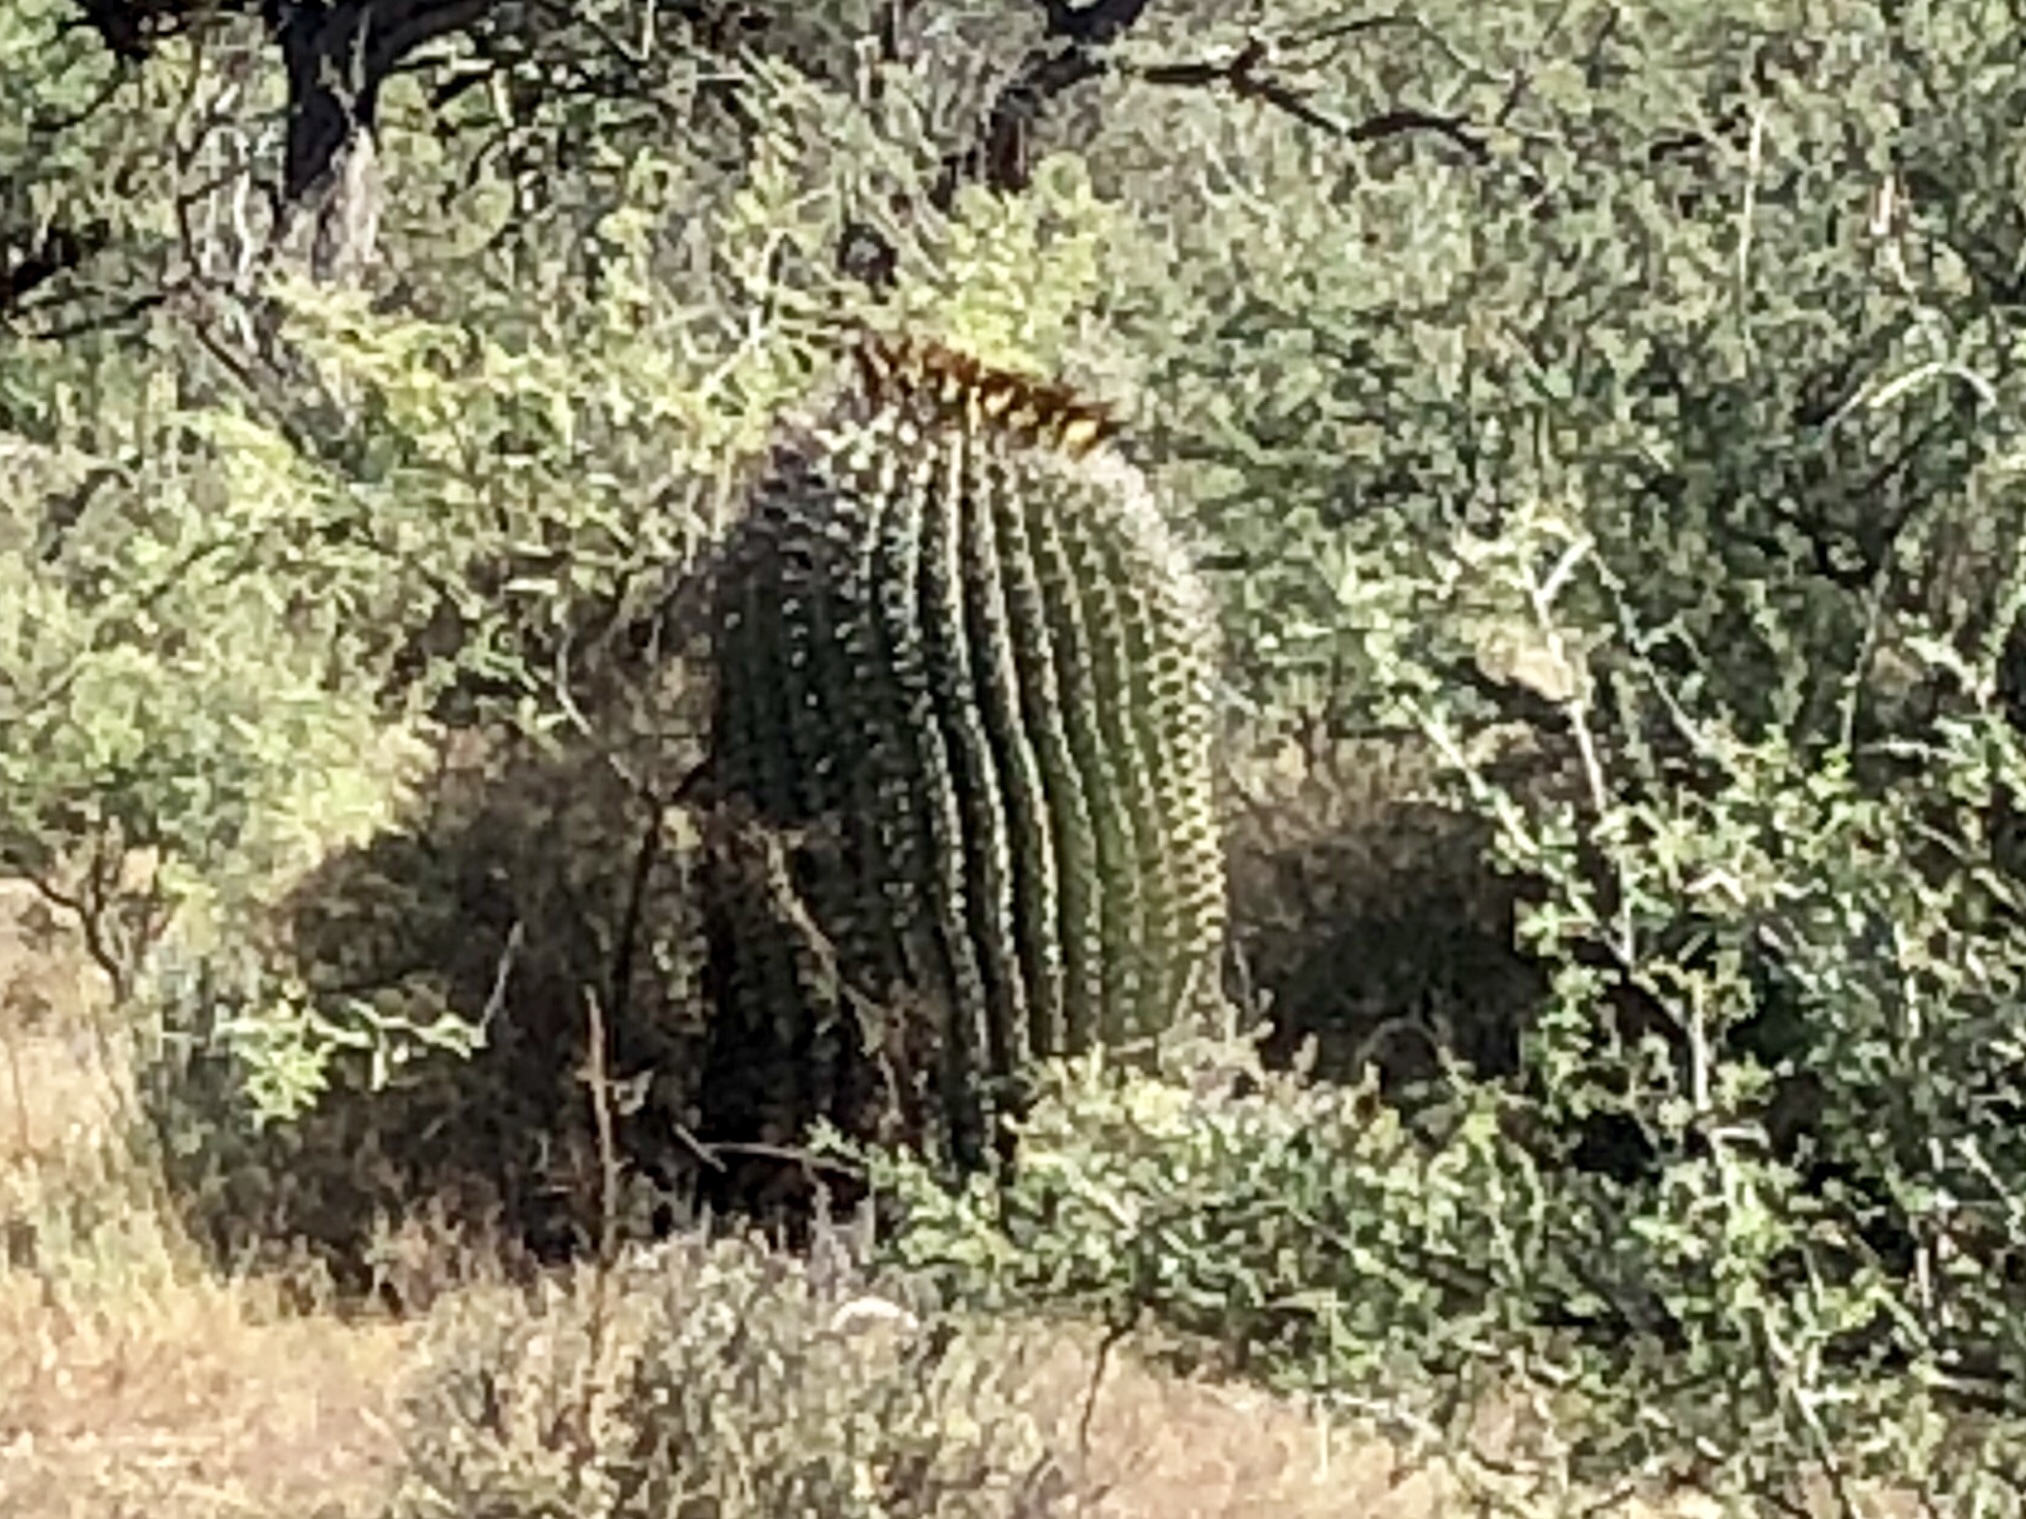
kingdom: Plantae
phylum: Tracheophyta
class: Magnoliopsida
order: Caryophyllales
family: Cactaceae
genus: Ferocactus
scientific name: Ferocactus wislizeni
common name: Candy barrel cactus
